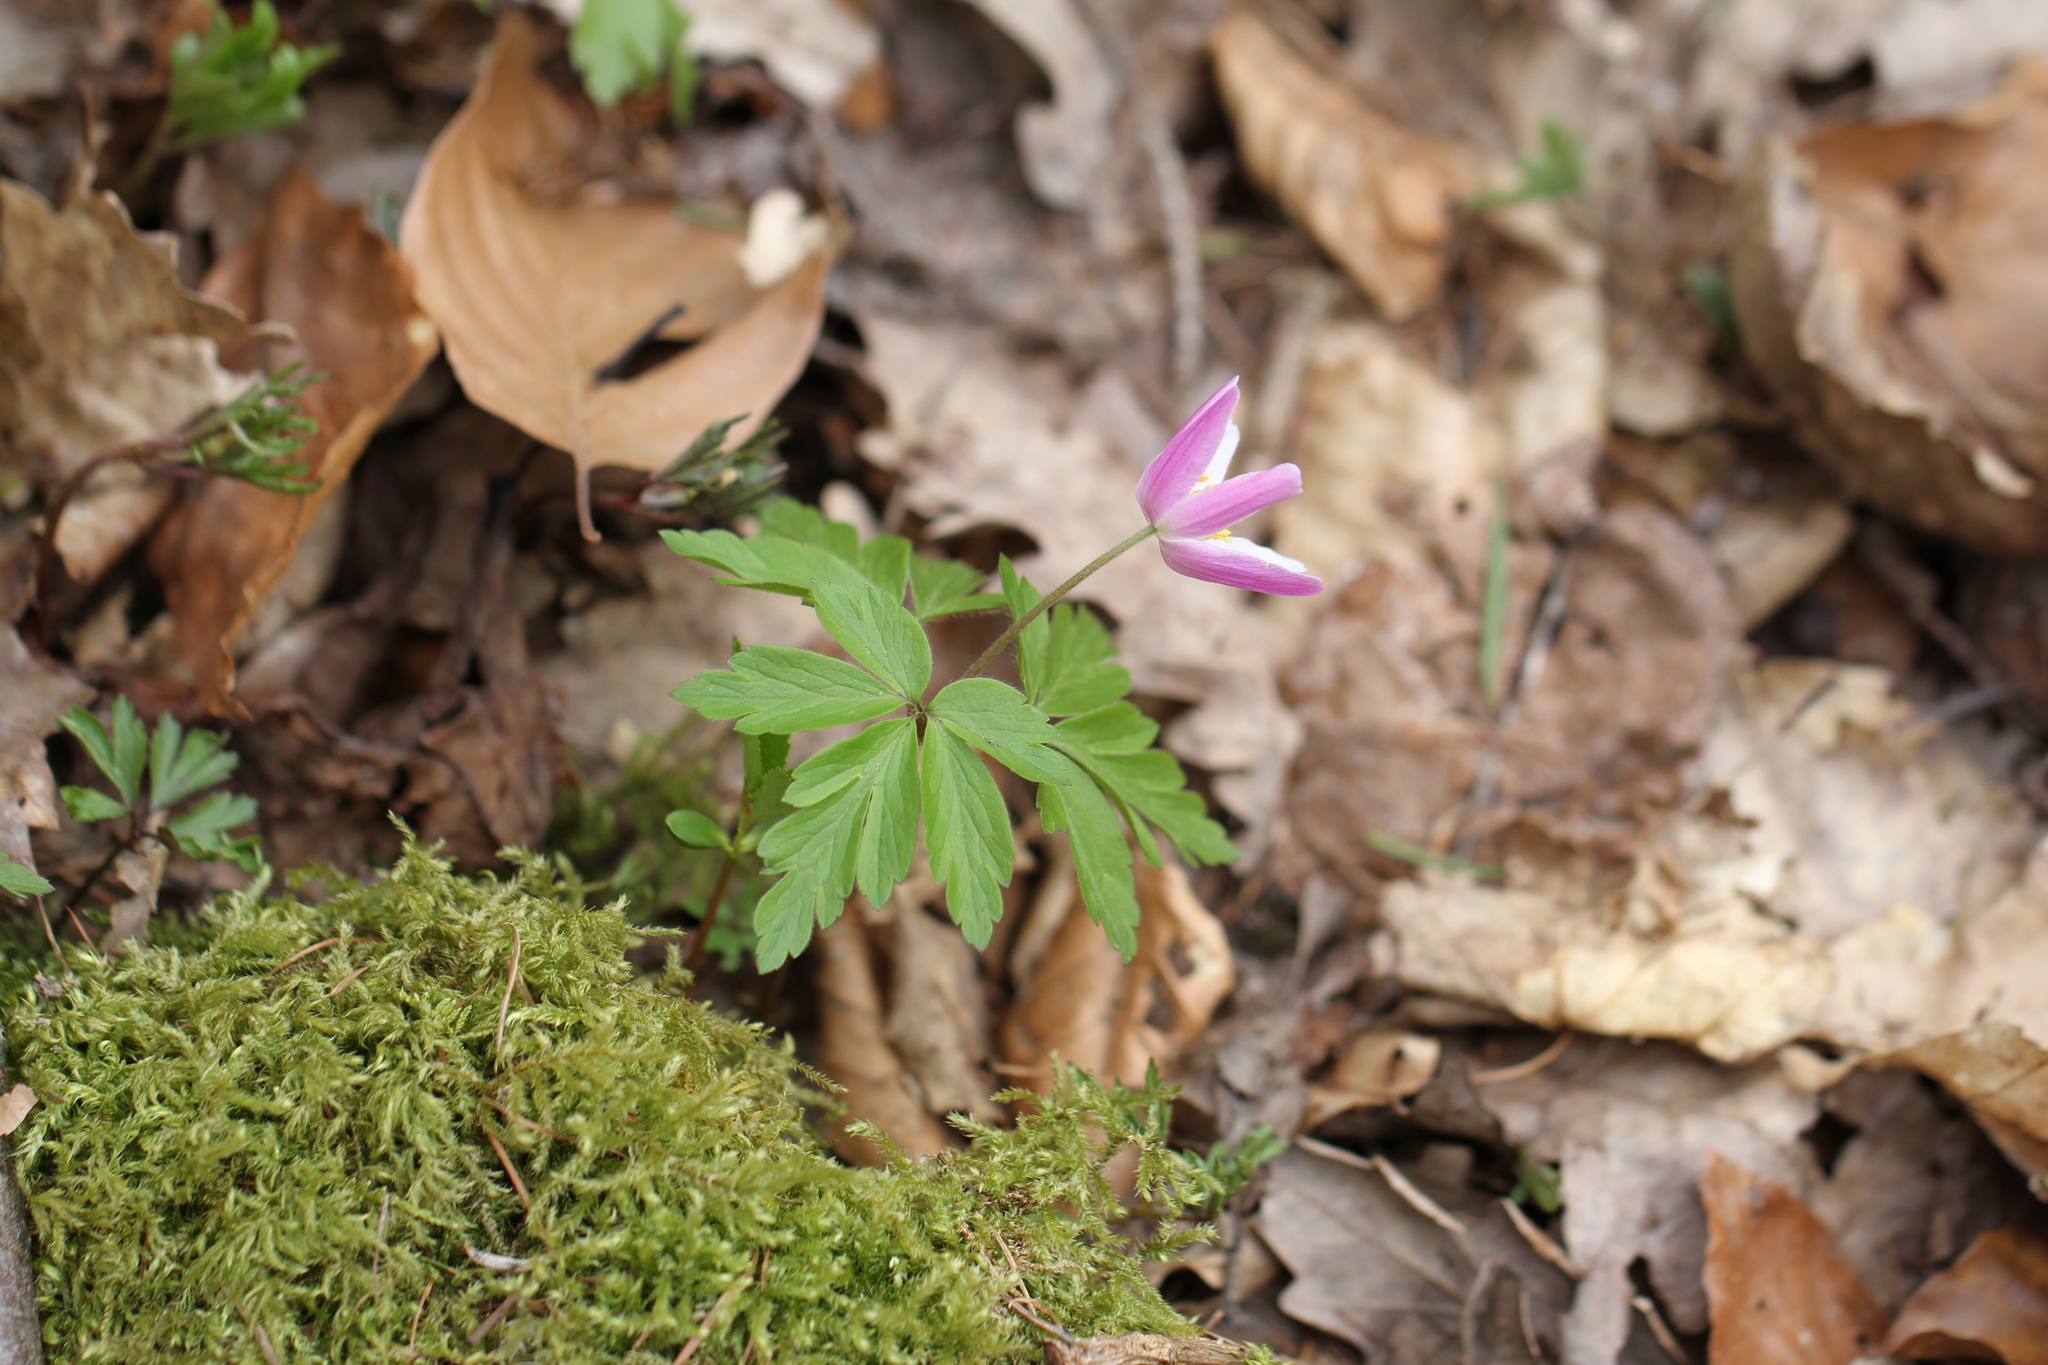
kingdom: Plantae
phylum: Tracheophyta
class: Magnoliopsida
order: Ranunculales
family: Ranunculaceae
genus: Anemone
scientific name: Anemone nemorosa
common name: Wood anemone
